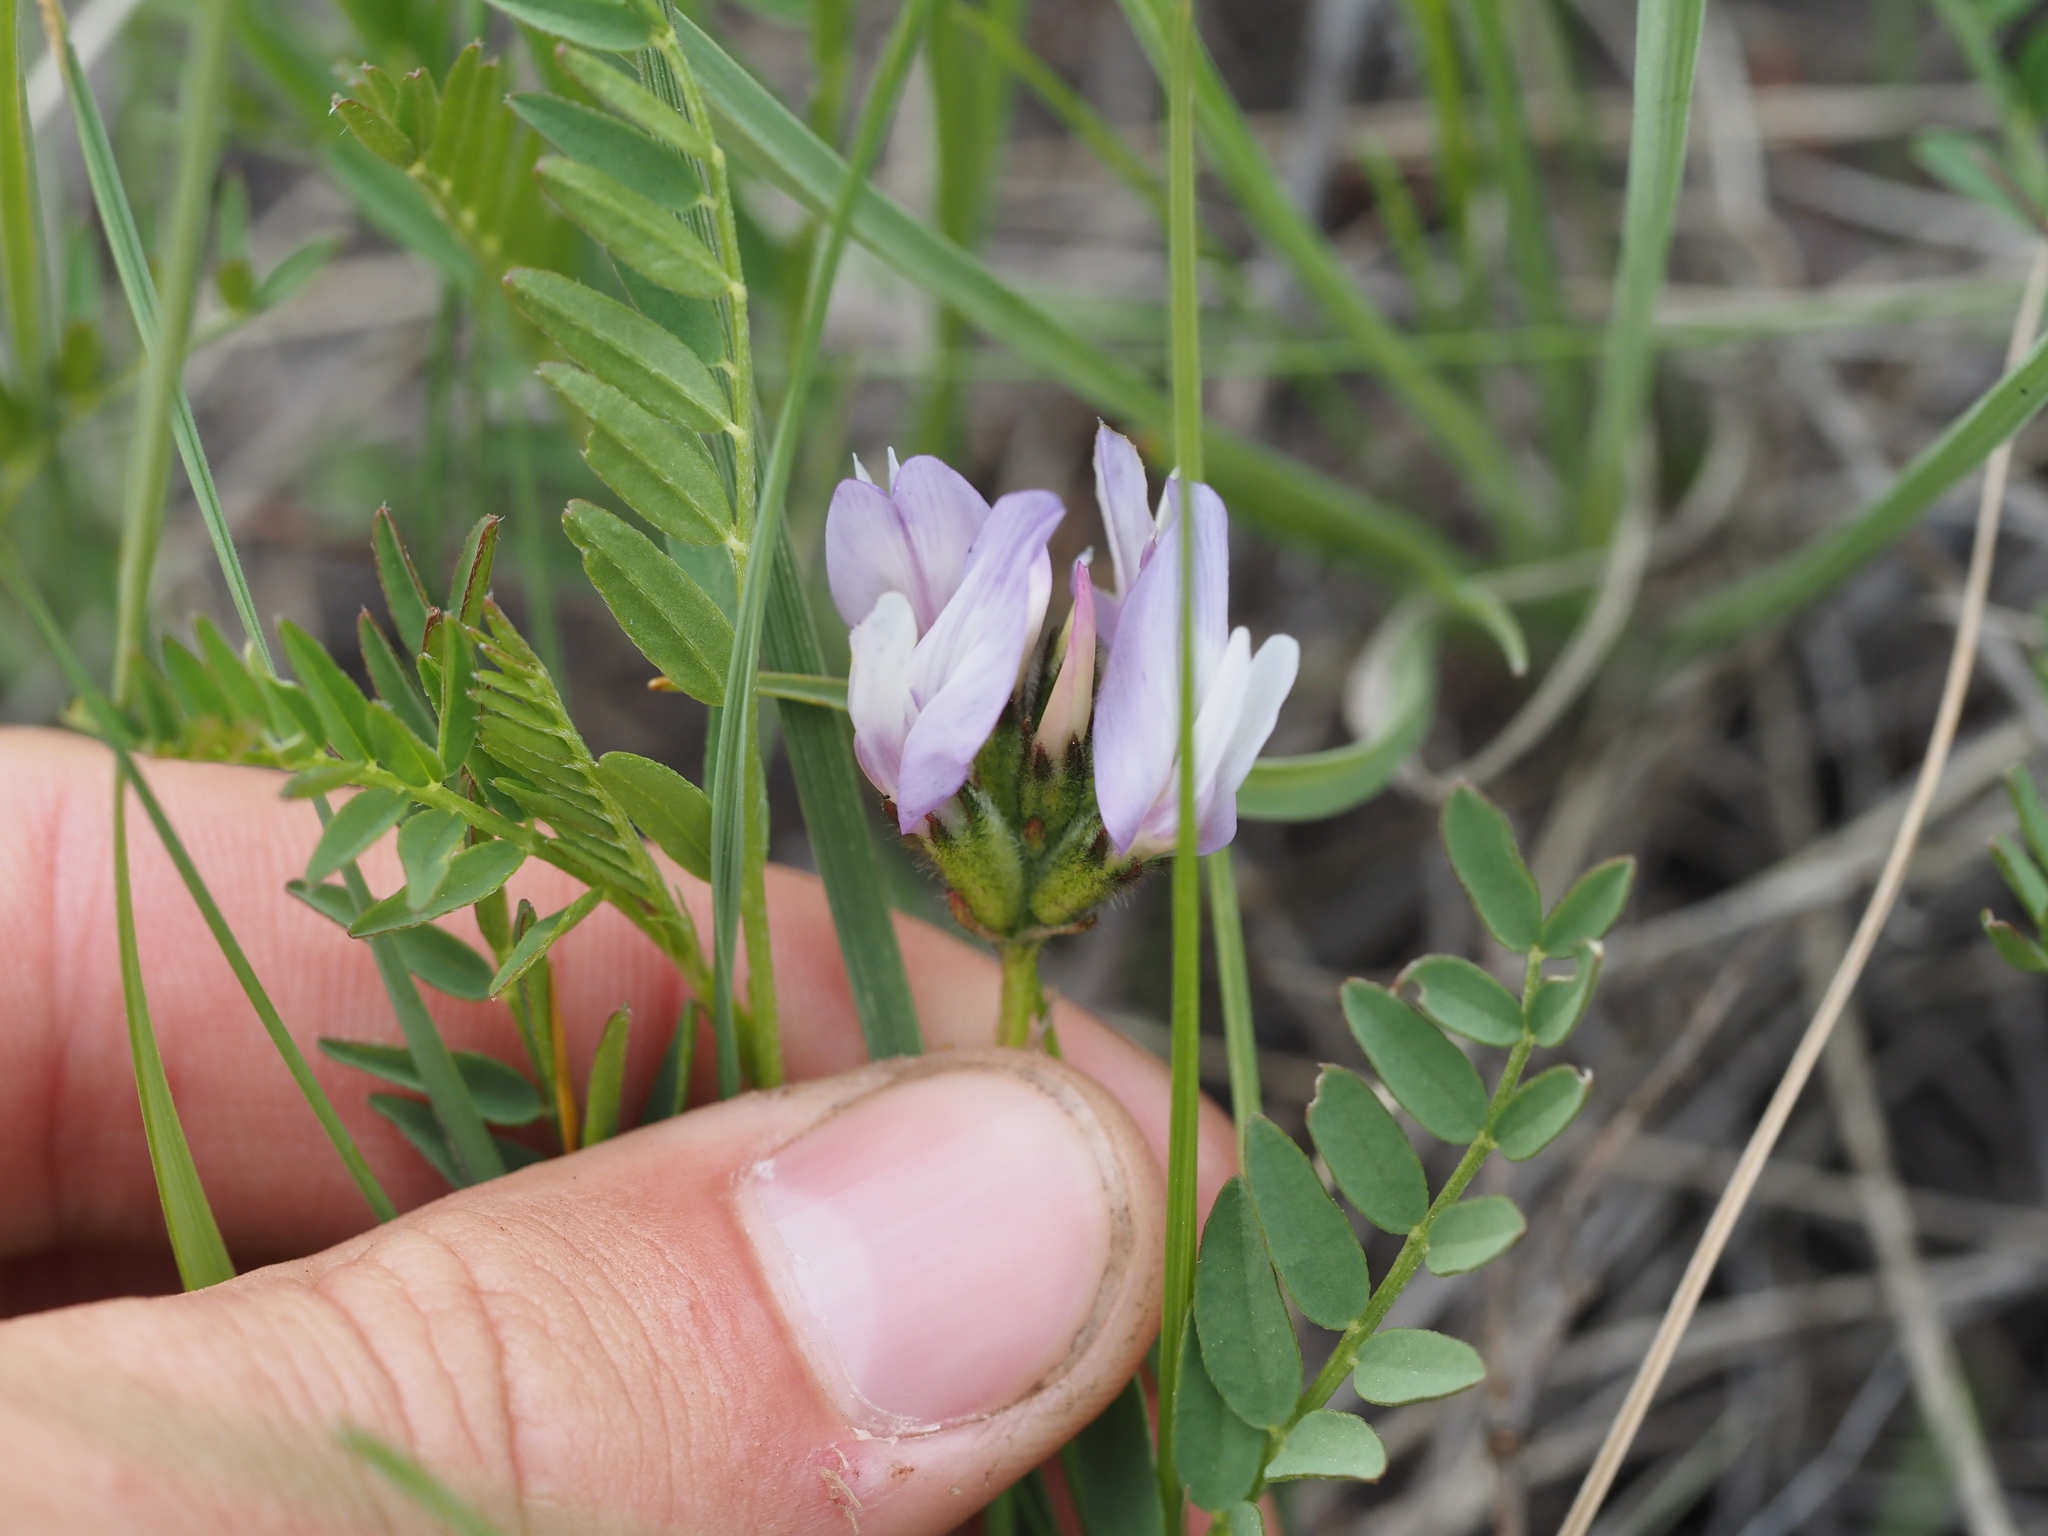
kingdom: Plantae
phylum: Tracheophyta
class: Magnoliopsida
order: Fabales
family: Fabaceae
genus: Astragalus
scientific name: Astragalus agrestis
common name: Field milk-vetch
